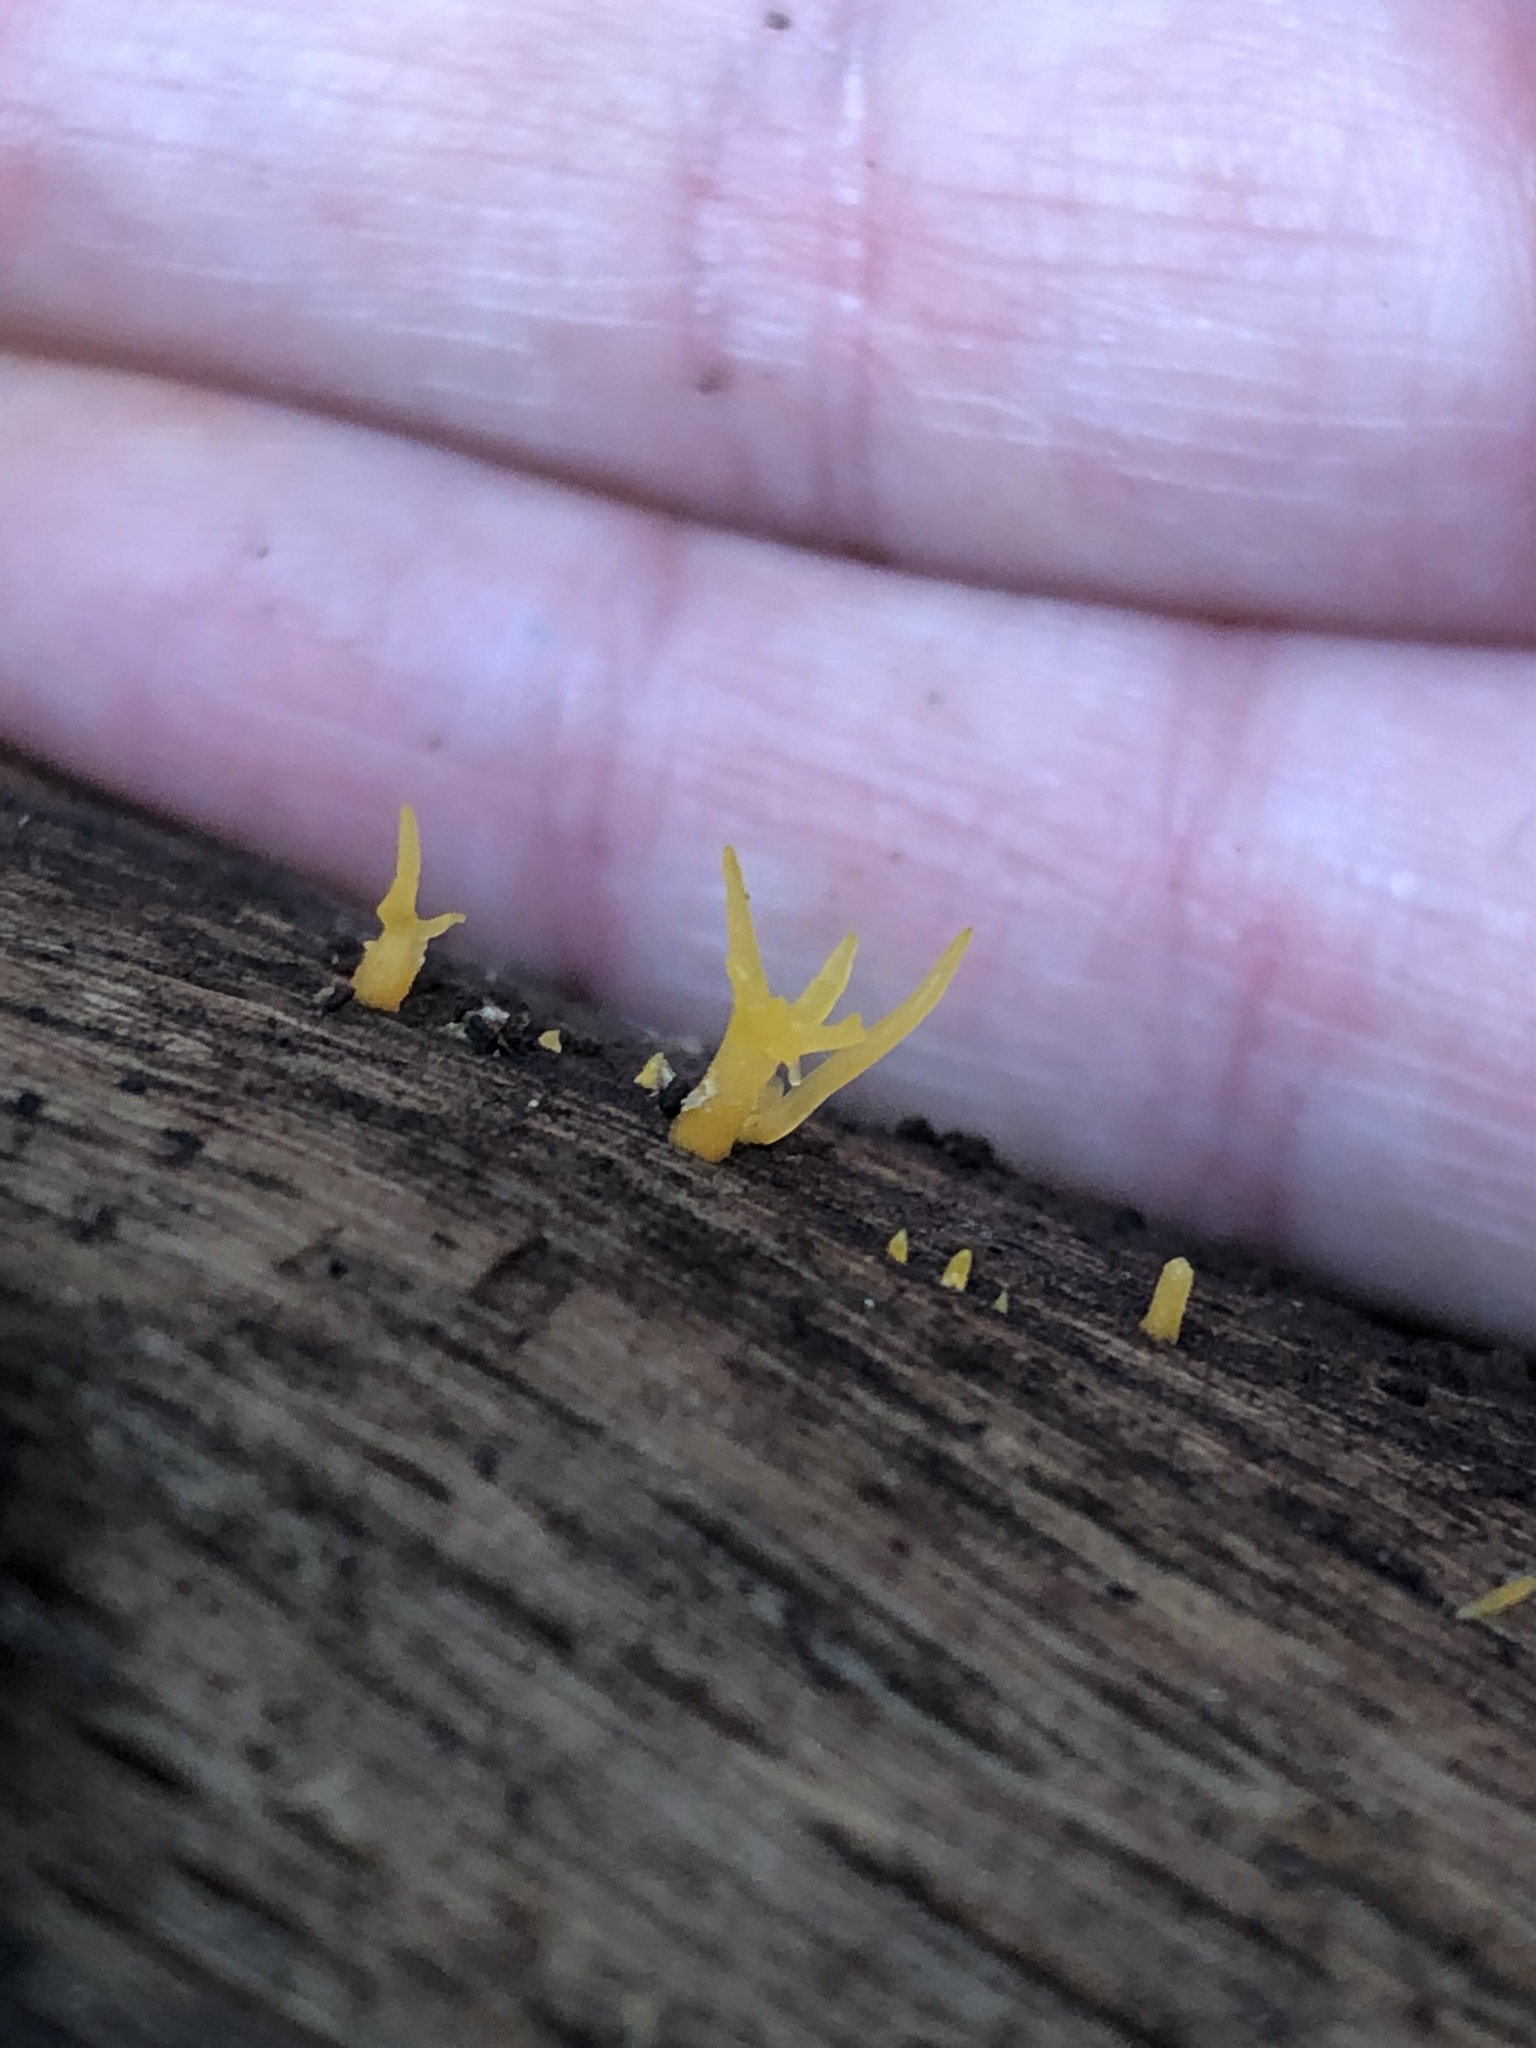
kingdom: Fungi
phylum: Basidiomycota
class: Dacrymycetes
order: Dacrymycetales
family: Dacrymycetaceae
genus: Calocera
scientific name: Calocera cornea
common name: Small stagshorn
